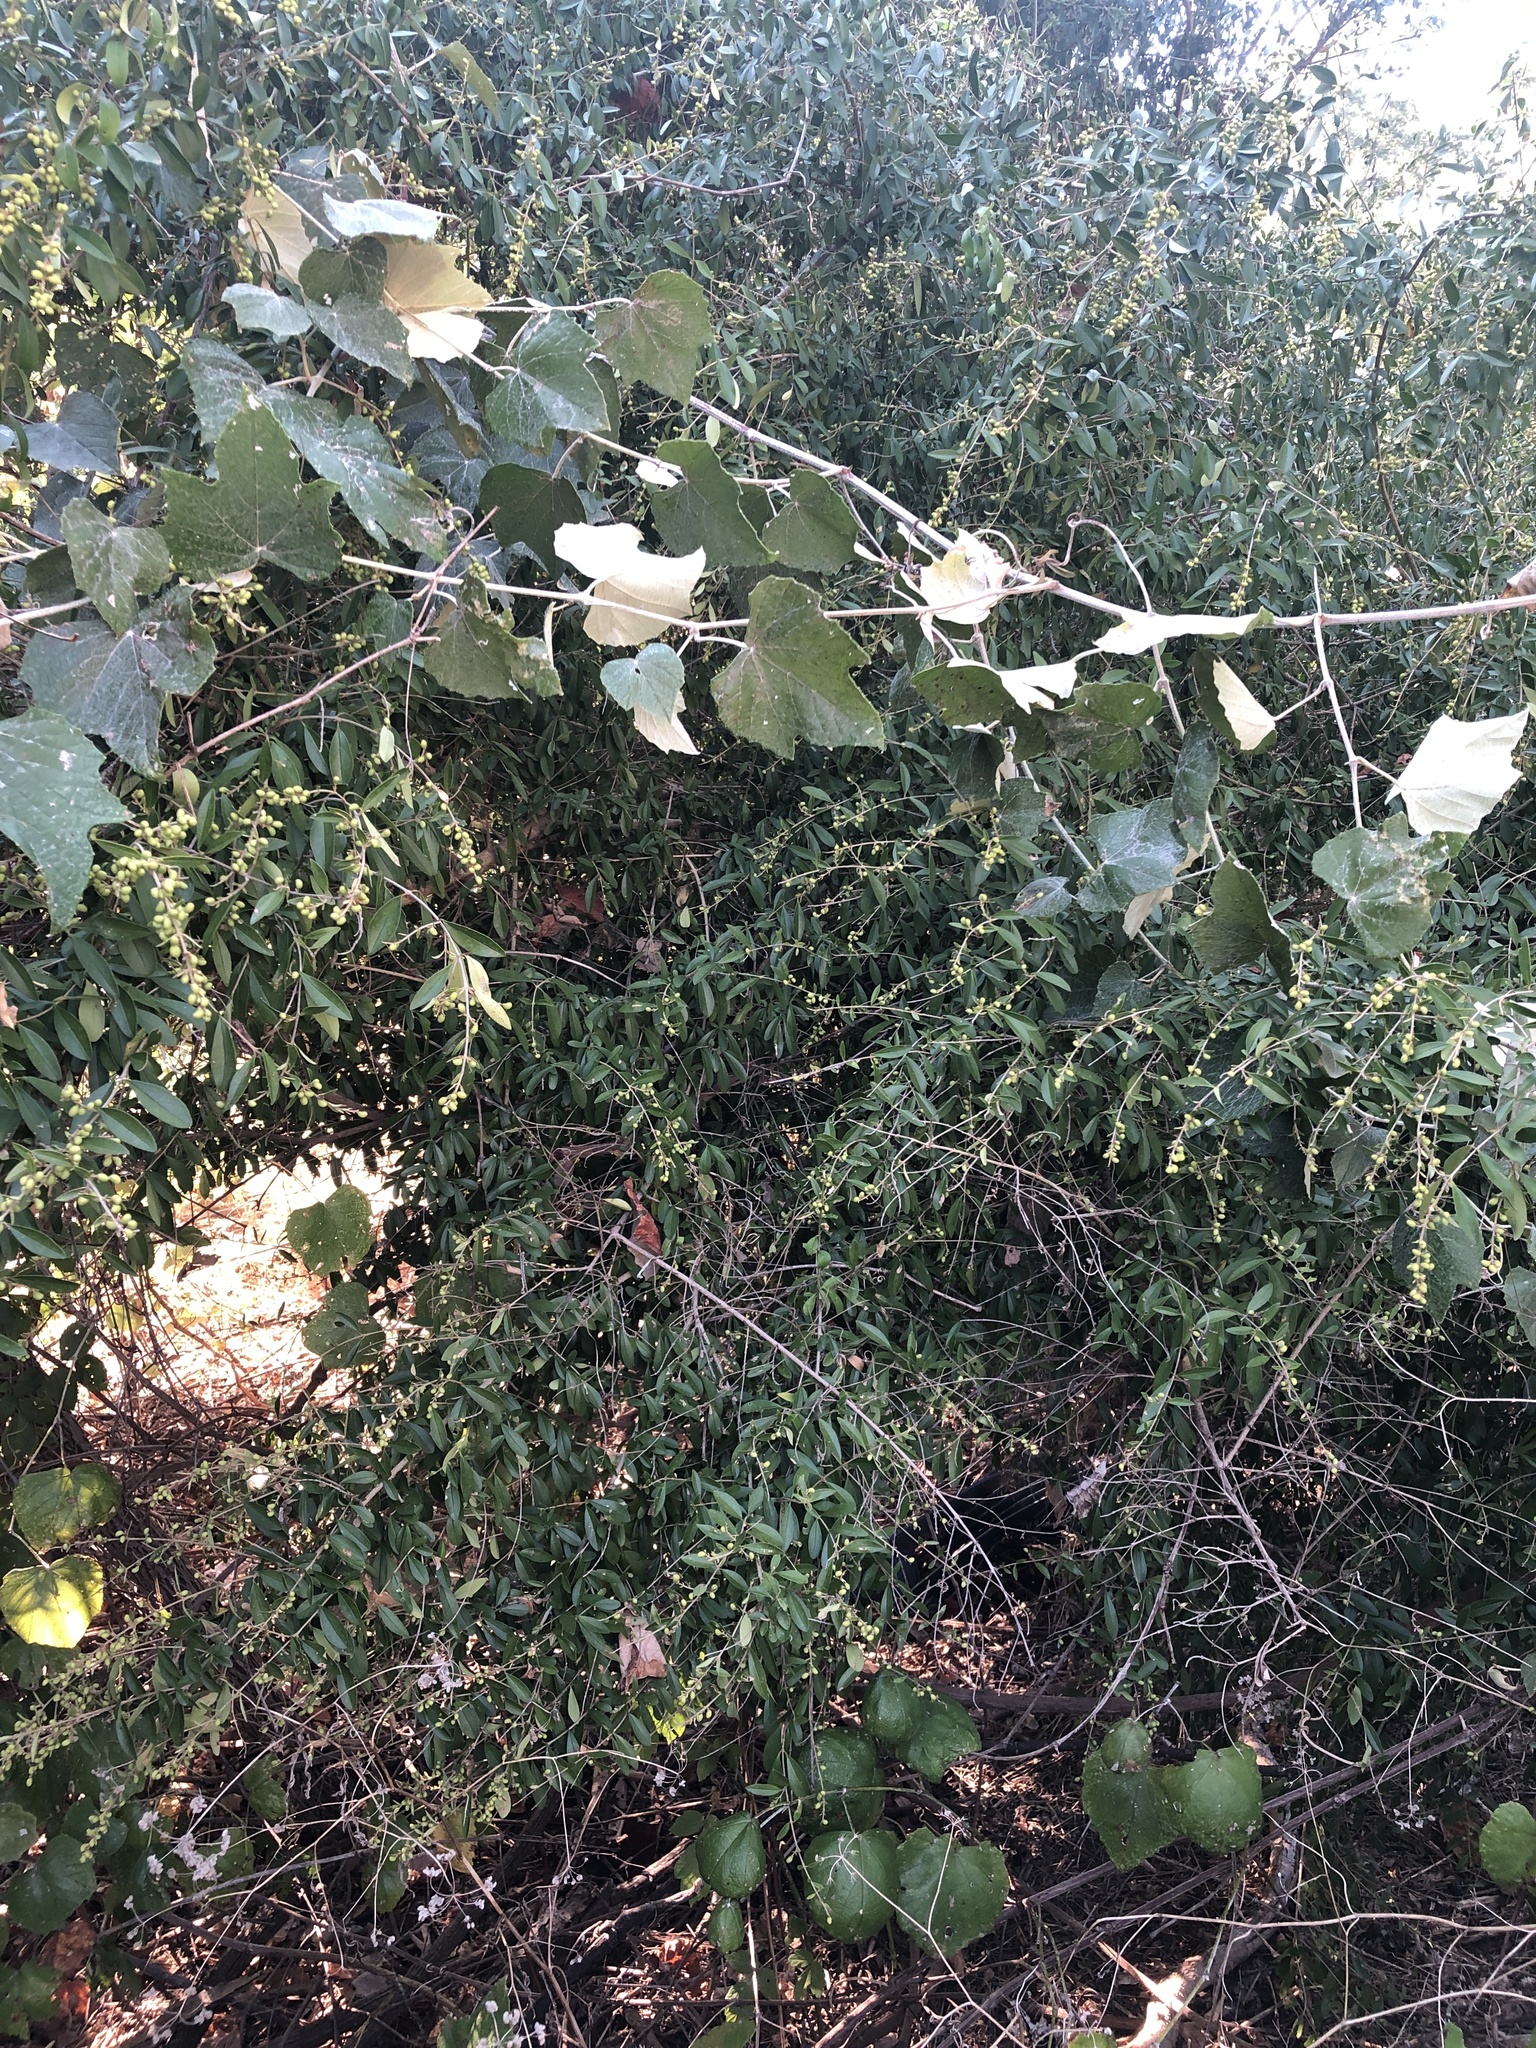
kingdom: Plantae
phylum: Tracheophyta
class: Magnoliopsida
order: Lamiales
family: Oleaceae
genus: Ligustrum
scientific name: Ligustrum quihoui
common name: Waxyleaf privet
